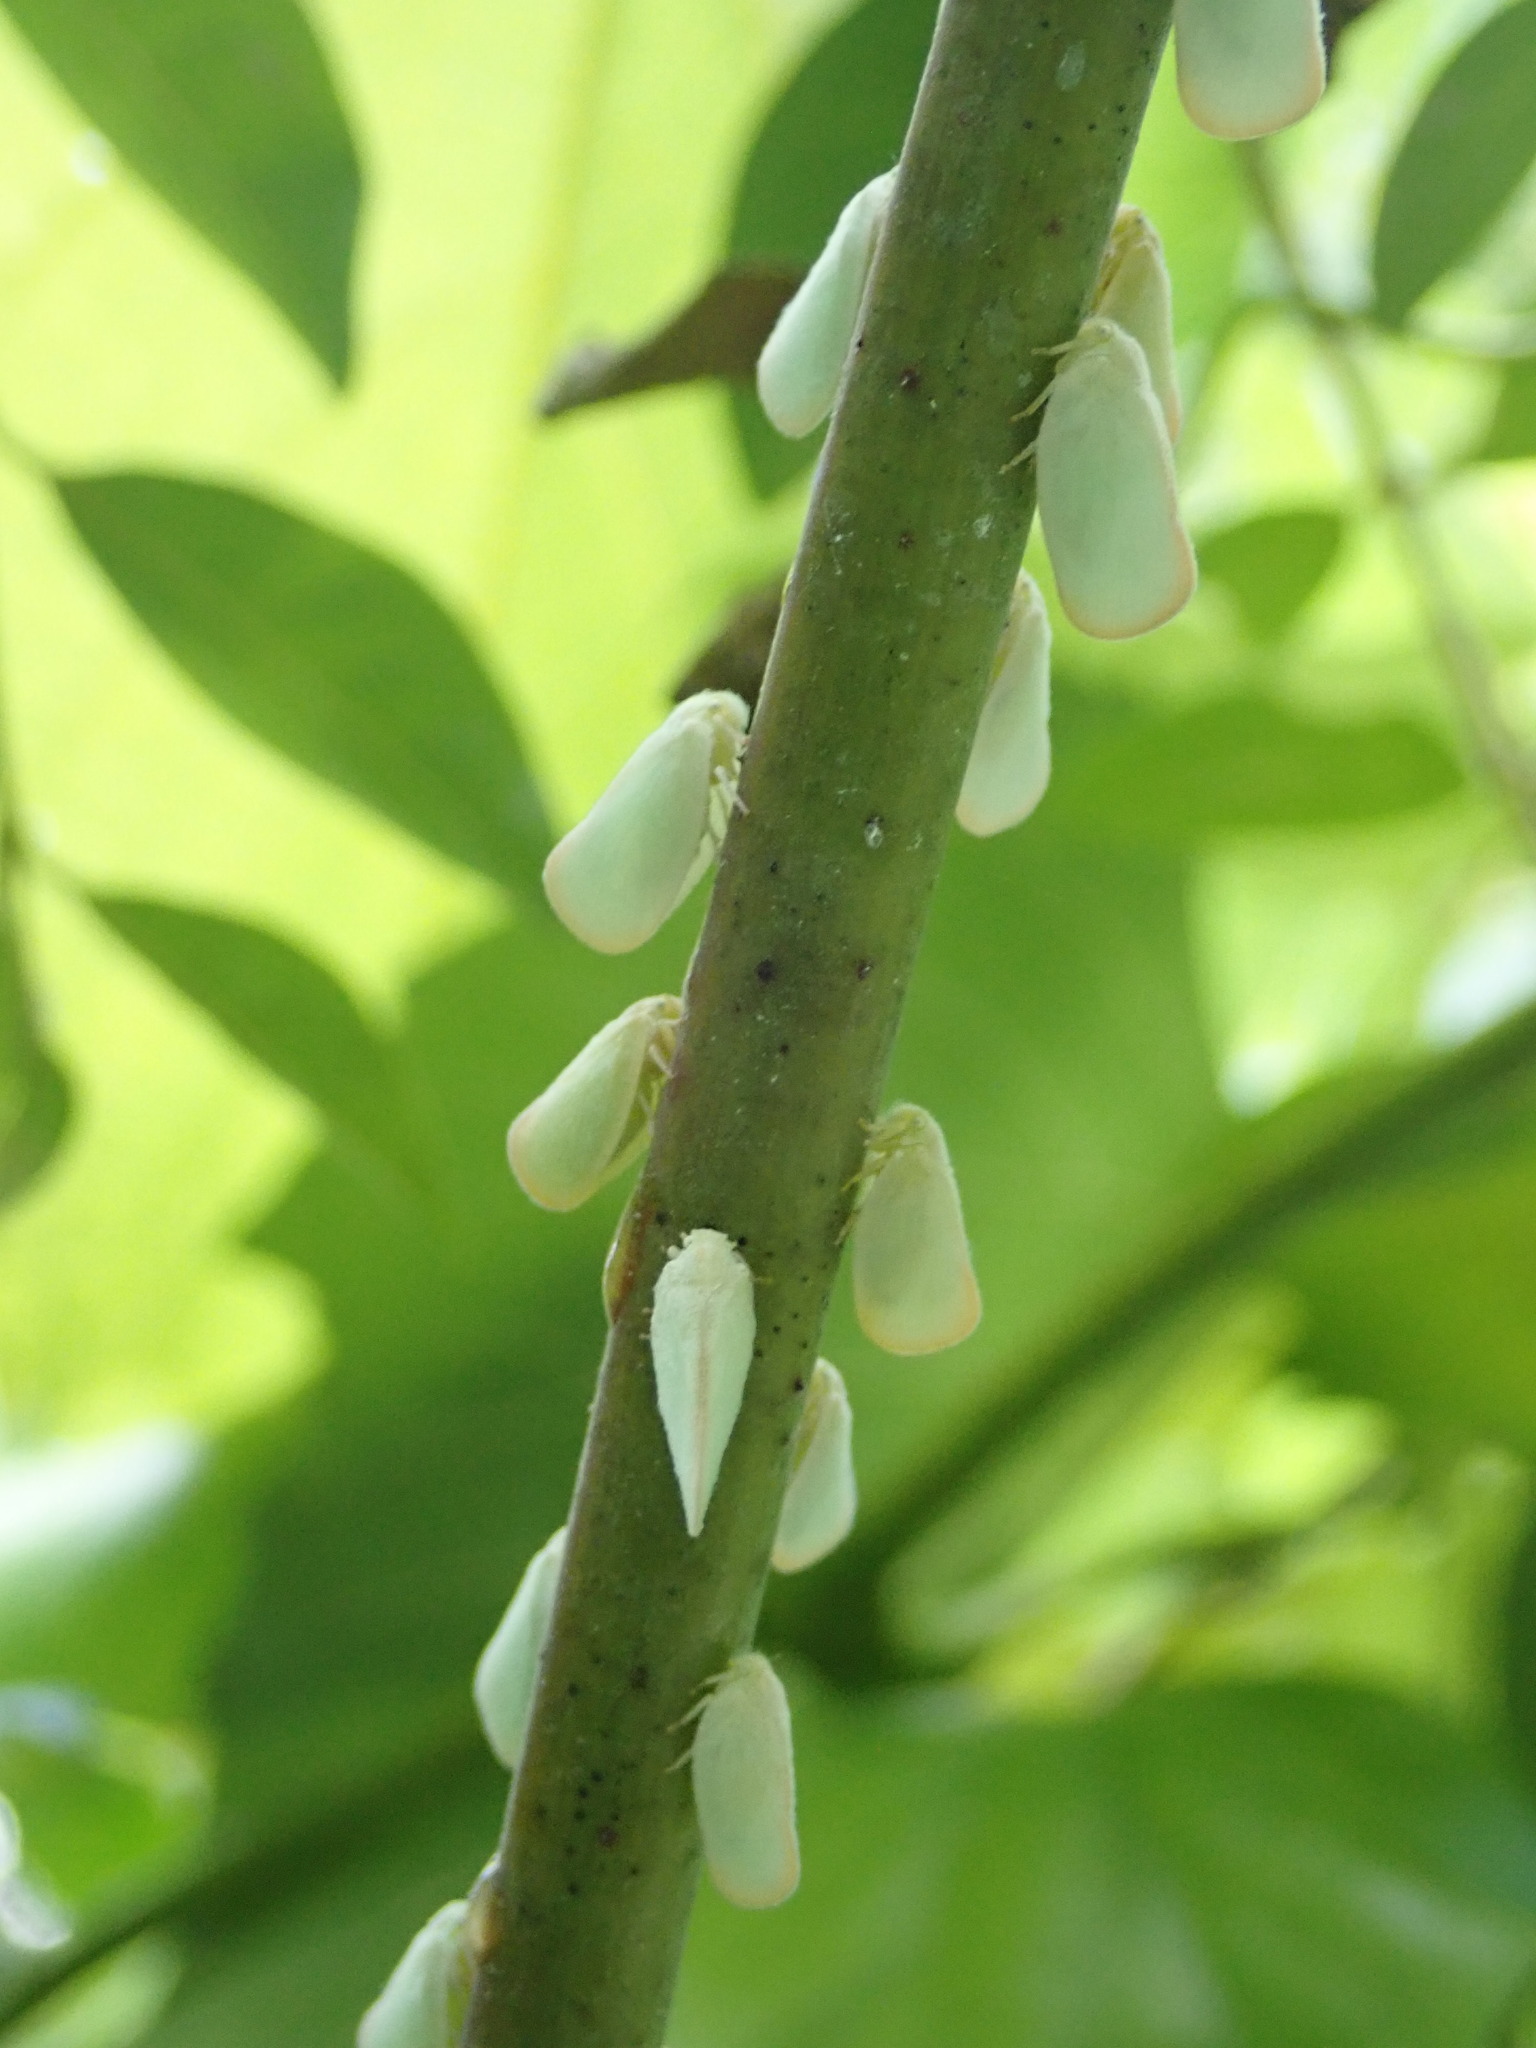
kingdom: Animalia
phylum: Arthropoda
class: Insecta
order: Hemiptera
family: Flatidae
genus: Ormenoides
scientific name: Ormenoides venusta
